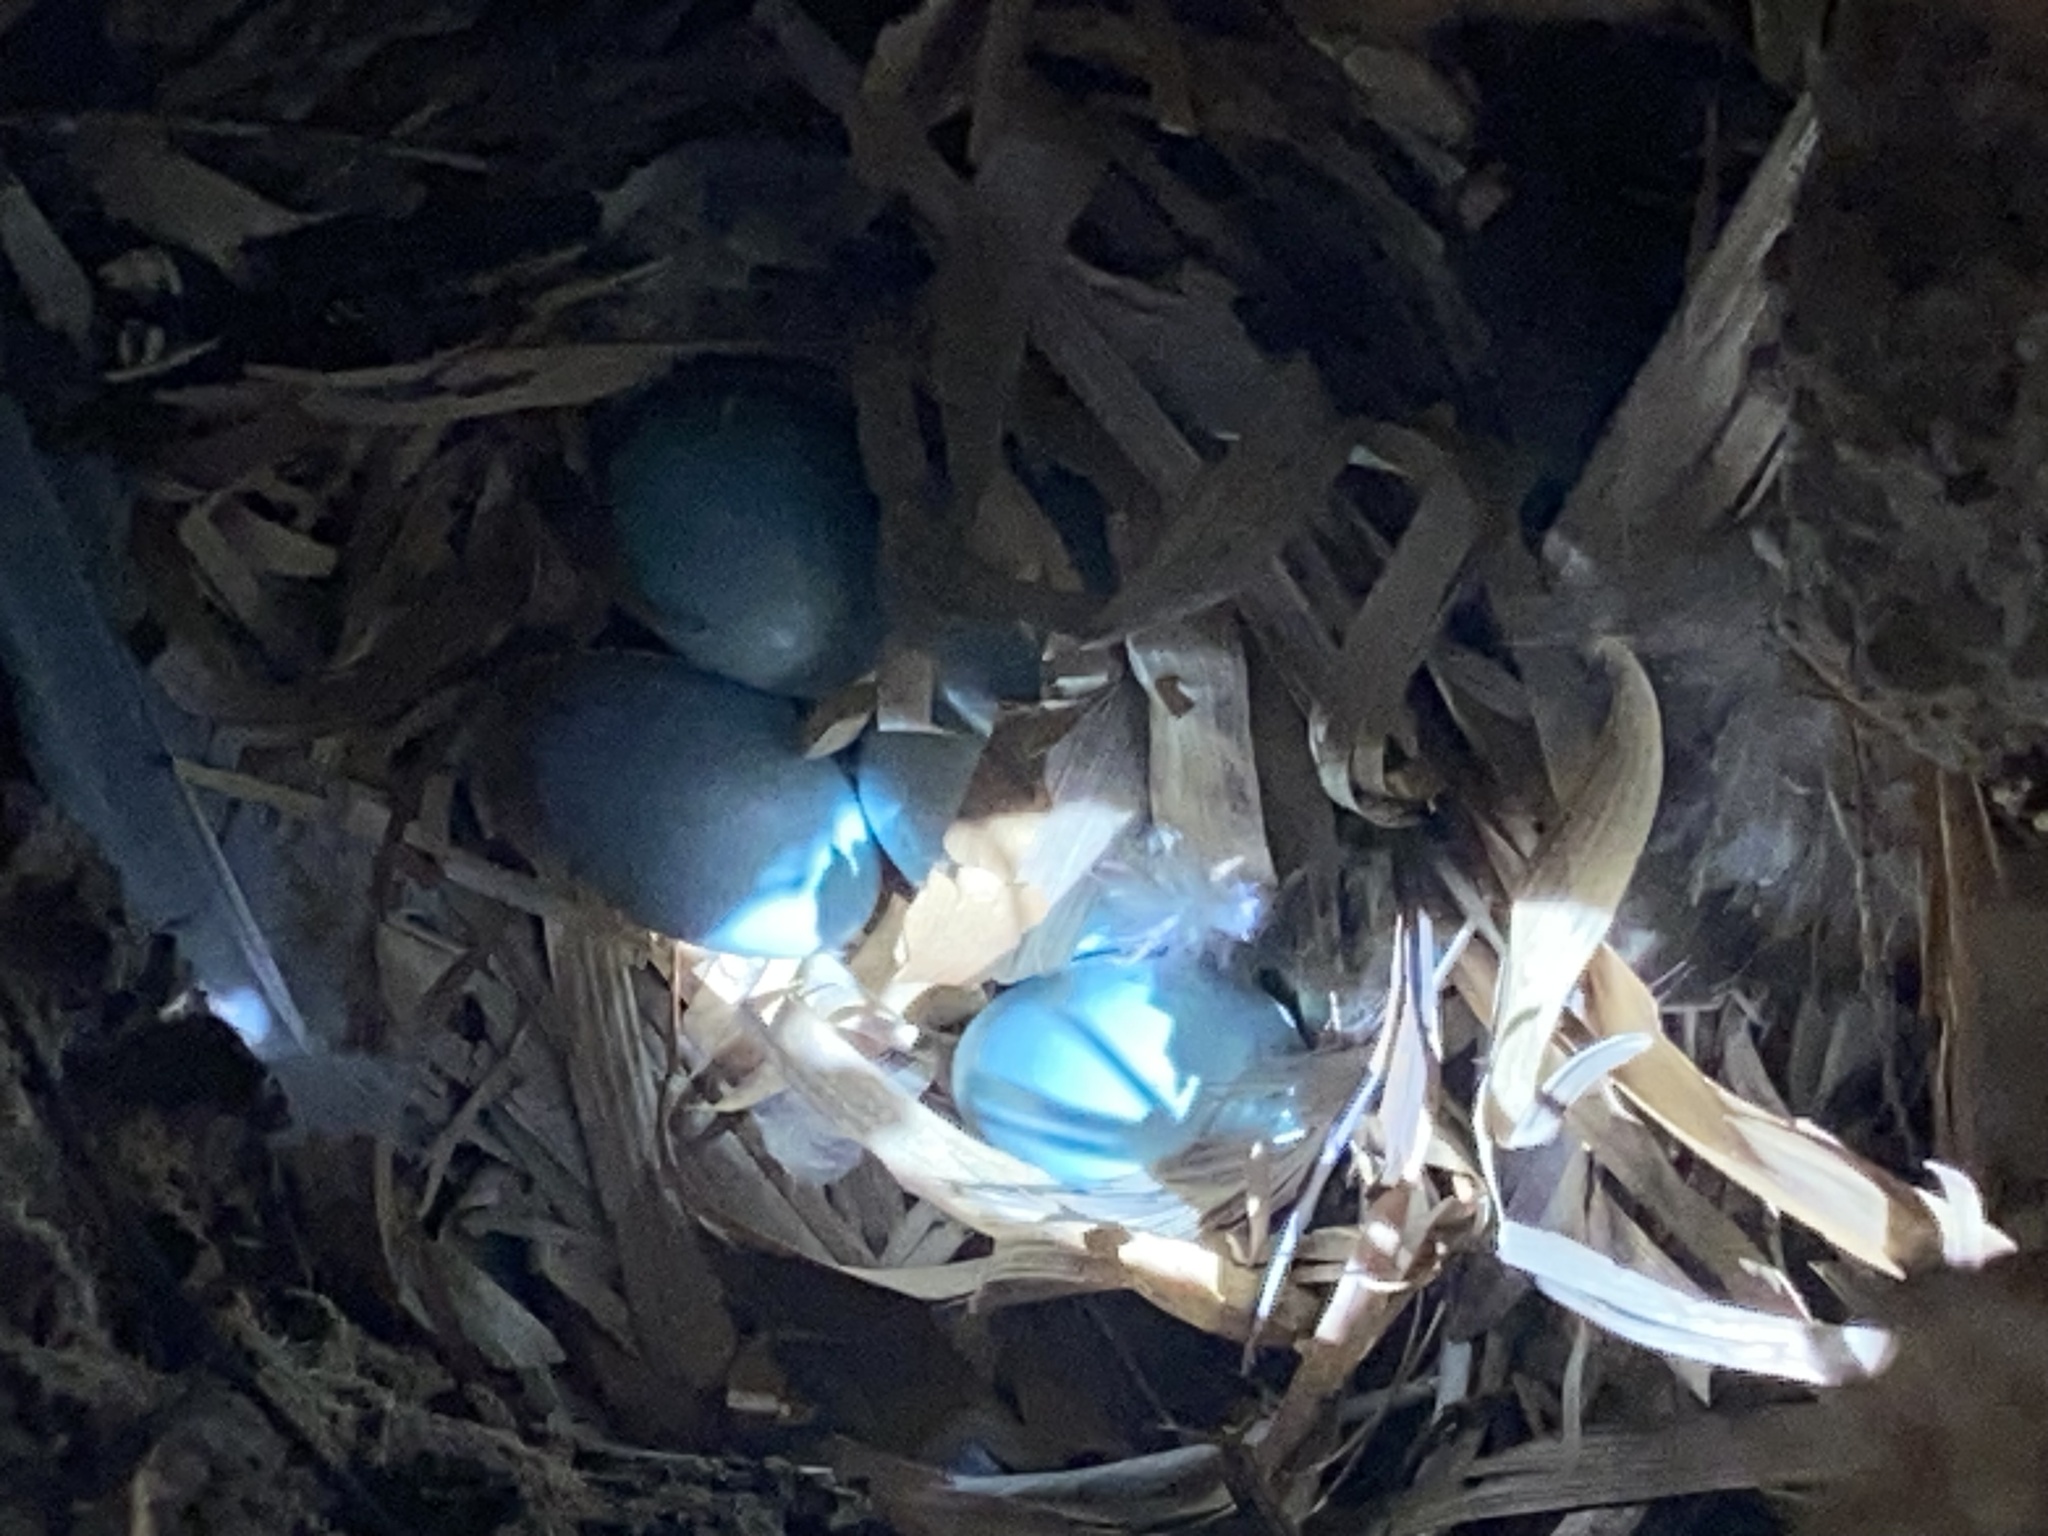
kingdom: Animalia
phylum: Chordata
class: Aves
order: Passeriformes
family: Sturnidae
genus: Sturnus
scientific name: Sturnus vulgaris
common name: Common starling
